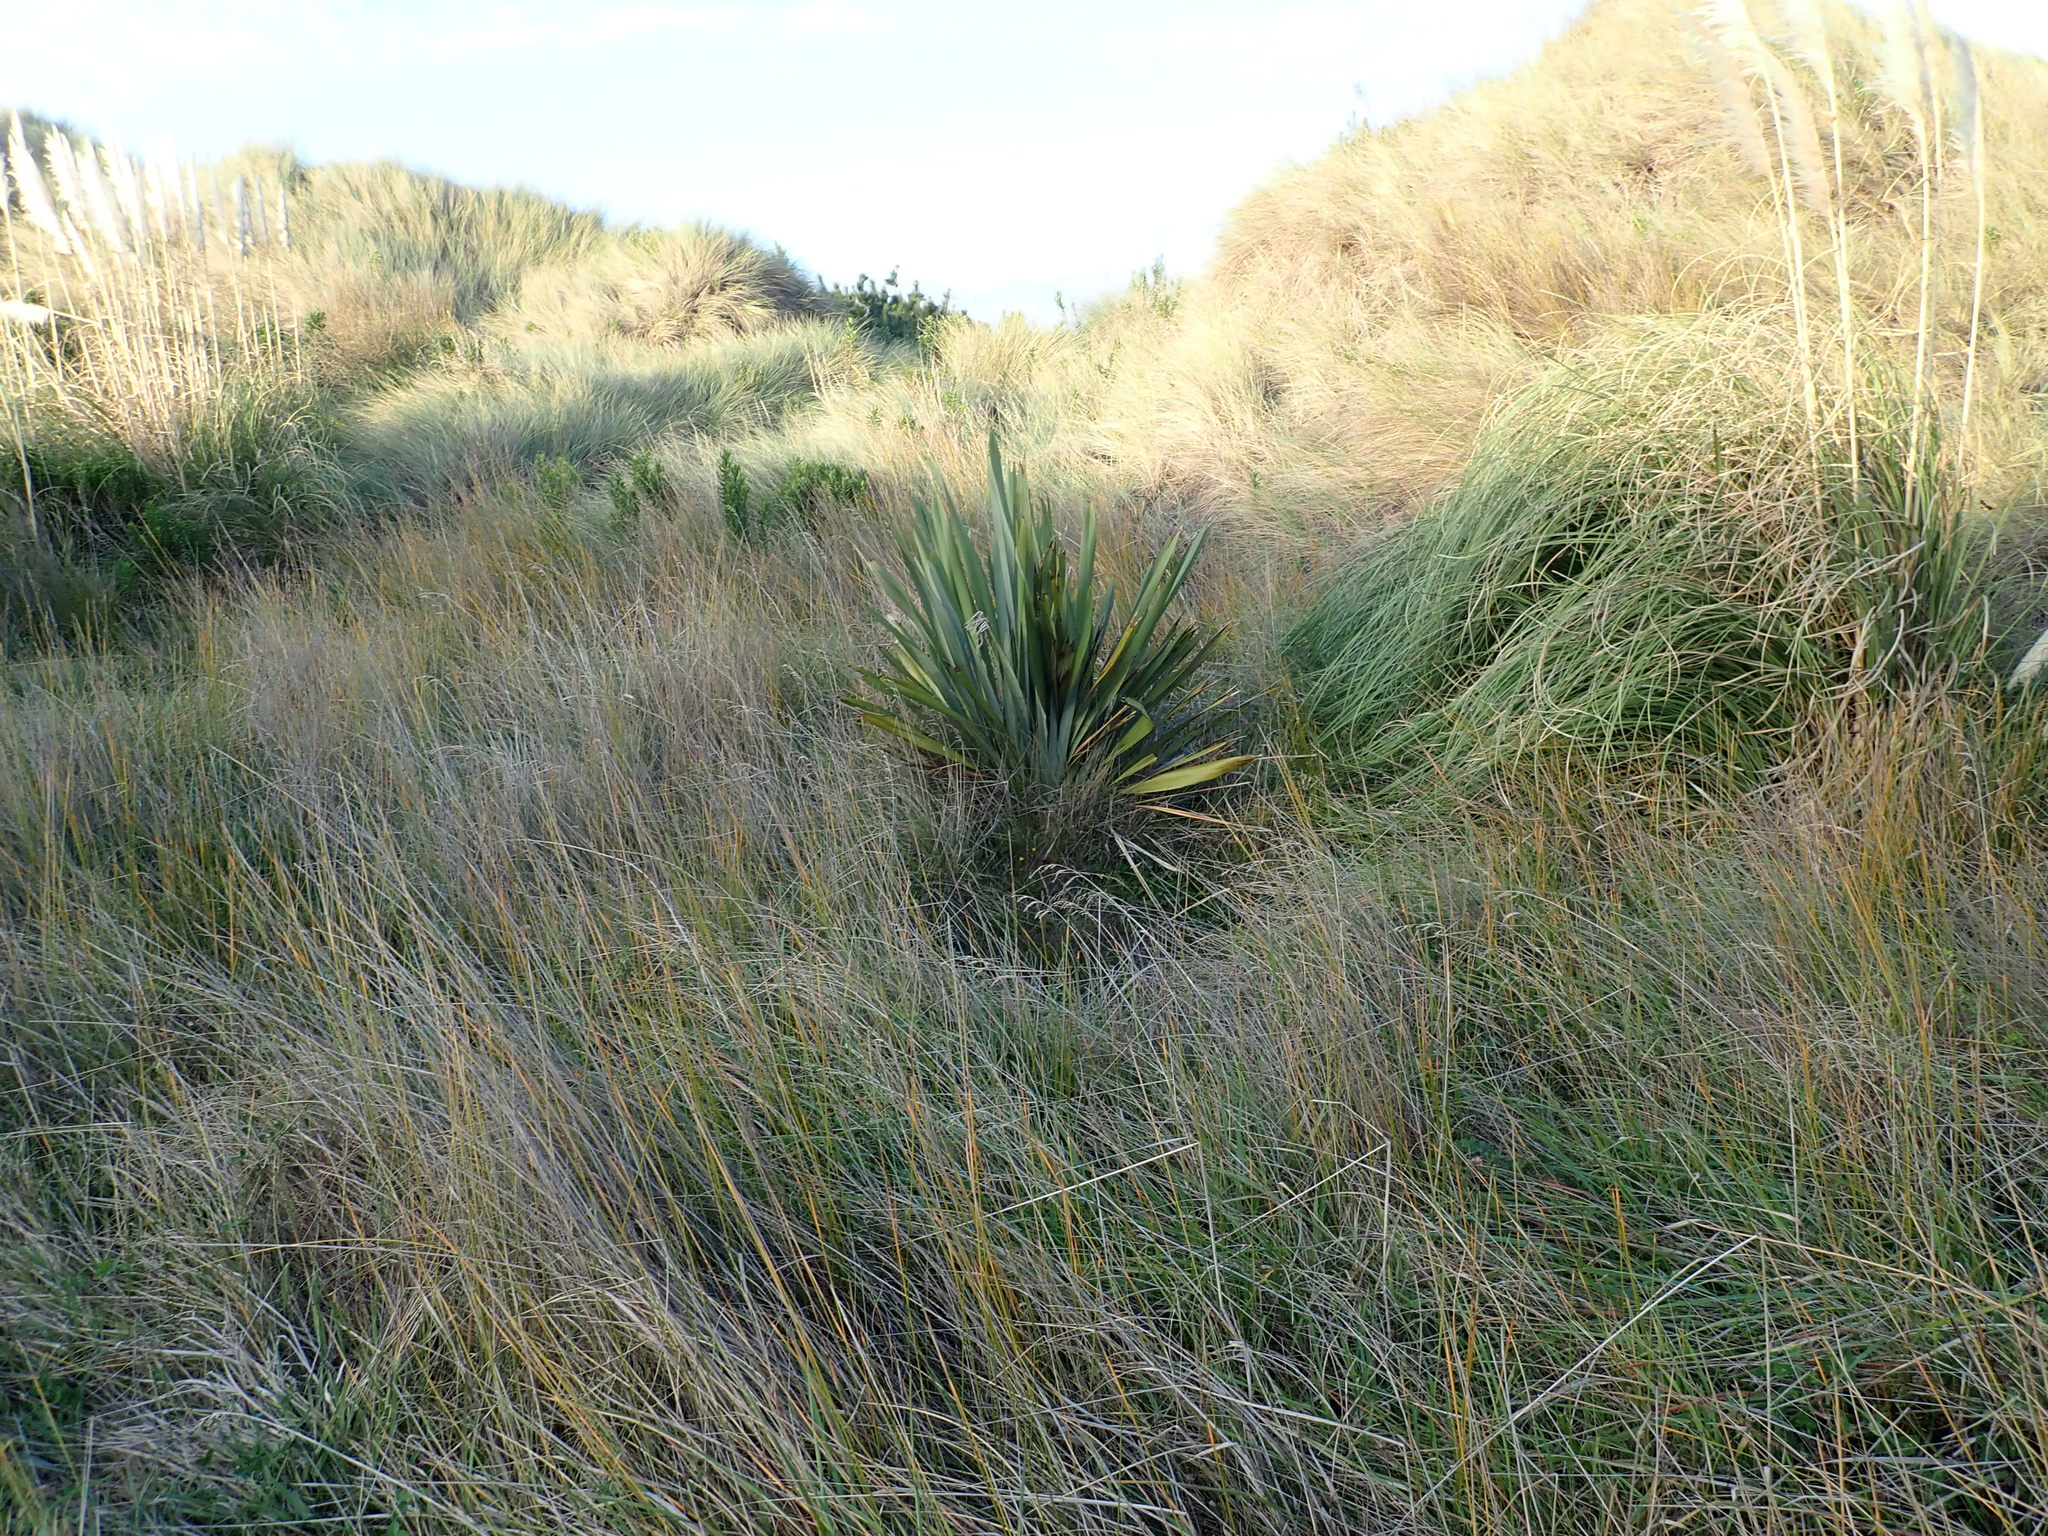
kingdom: Plantae
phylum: Tracheophyta
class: Magnoliopsida
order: Asterales
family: Goodeniaceae
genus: Goodenia
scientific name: Goodenia heenanii
